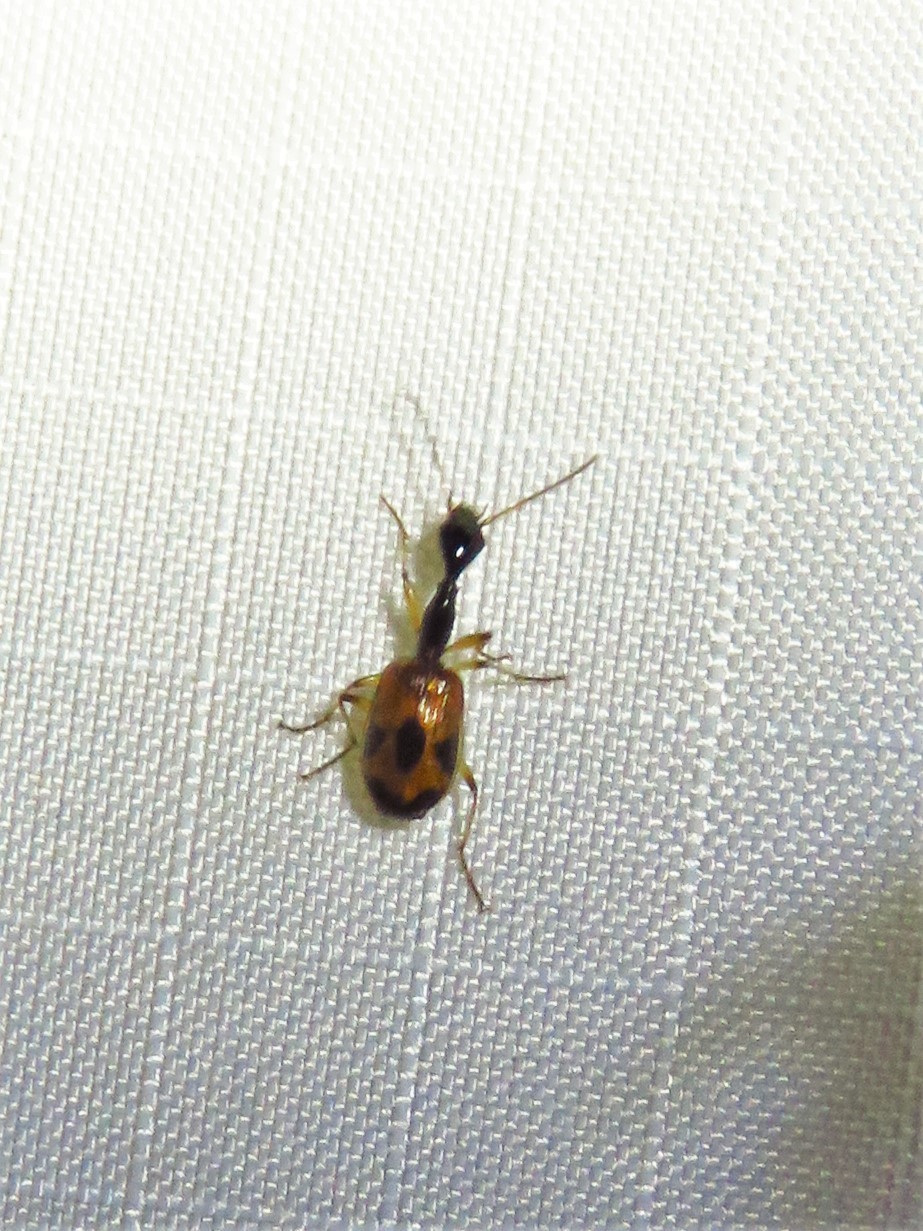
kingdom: Animalia
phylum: Arthropoda
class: Insecta
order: Coleoptera
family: Carabidae
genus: Colliuris
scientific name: Colliuris pensylvanica
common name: Long-necked ground beetle
